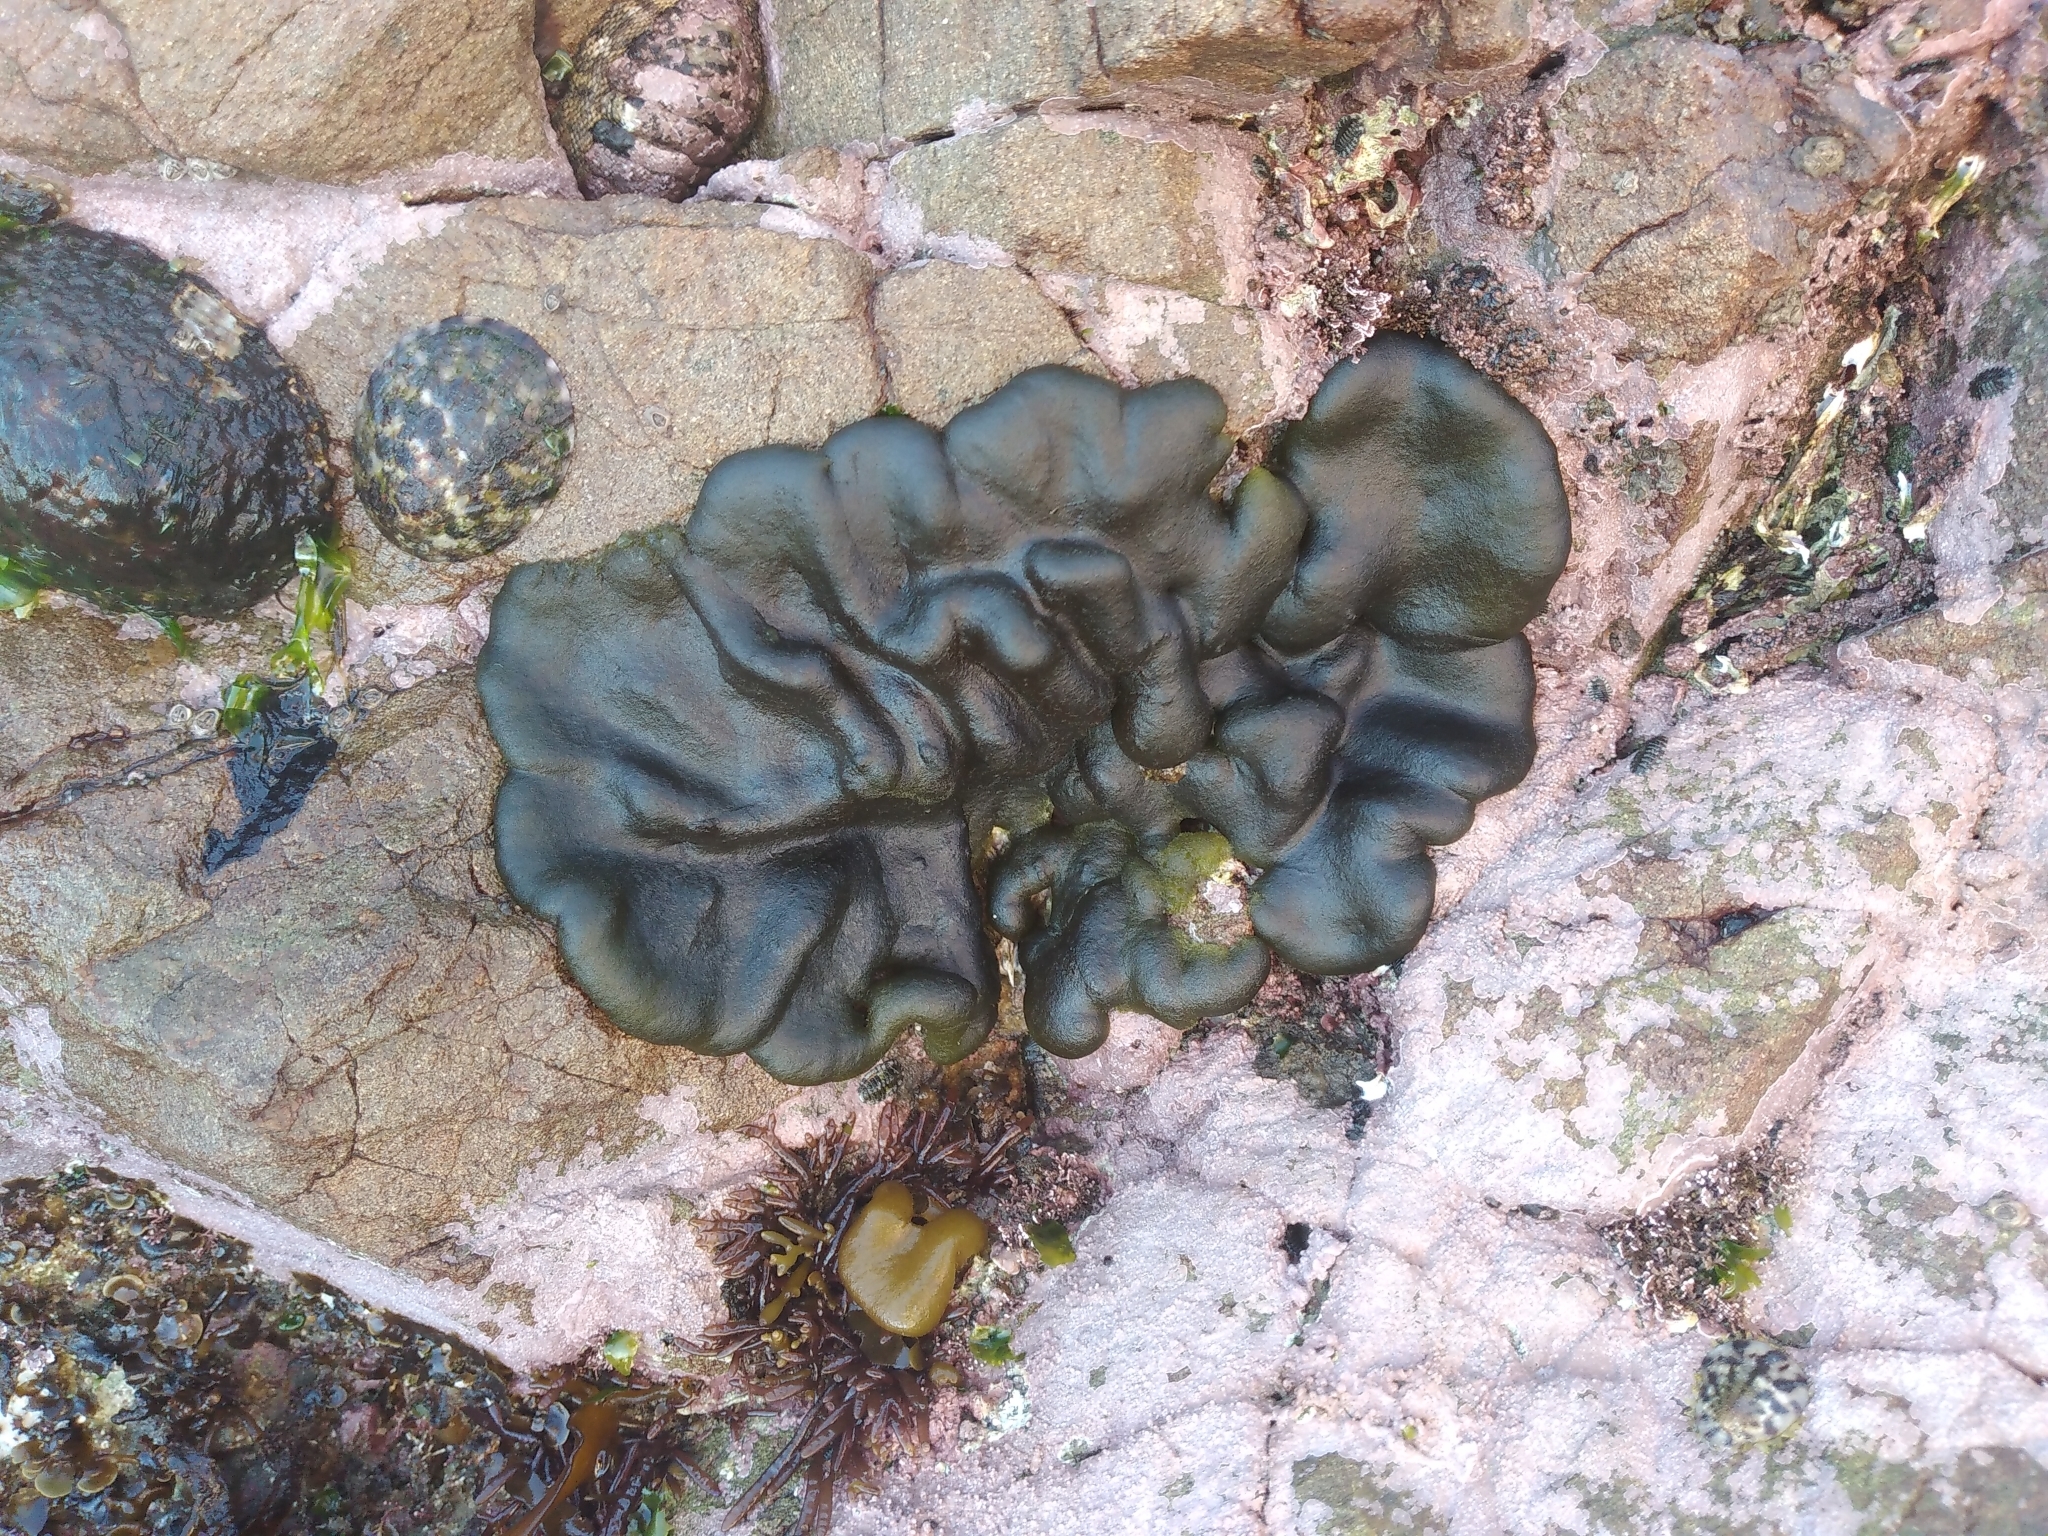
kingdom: Plantae
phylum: Chlorophyta
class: Ulvophyceae
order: Bryopsidales
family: Codiaceae
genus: Codium
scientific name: Codium convolutum
